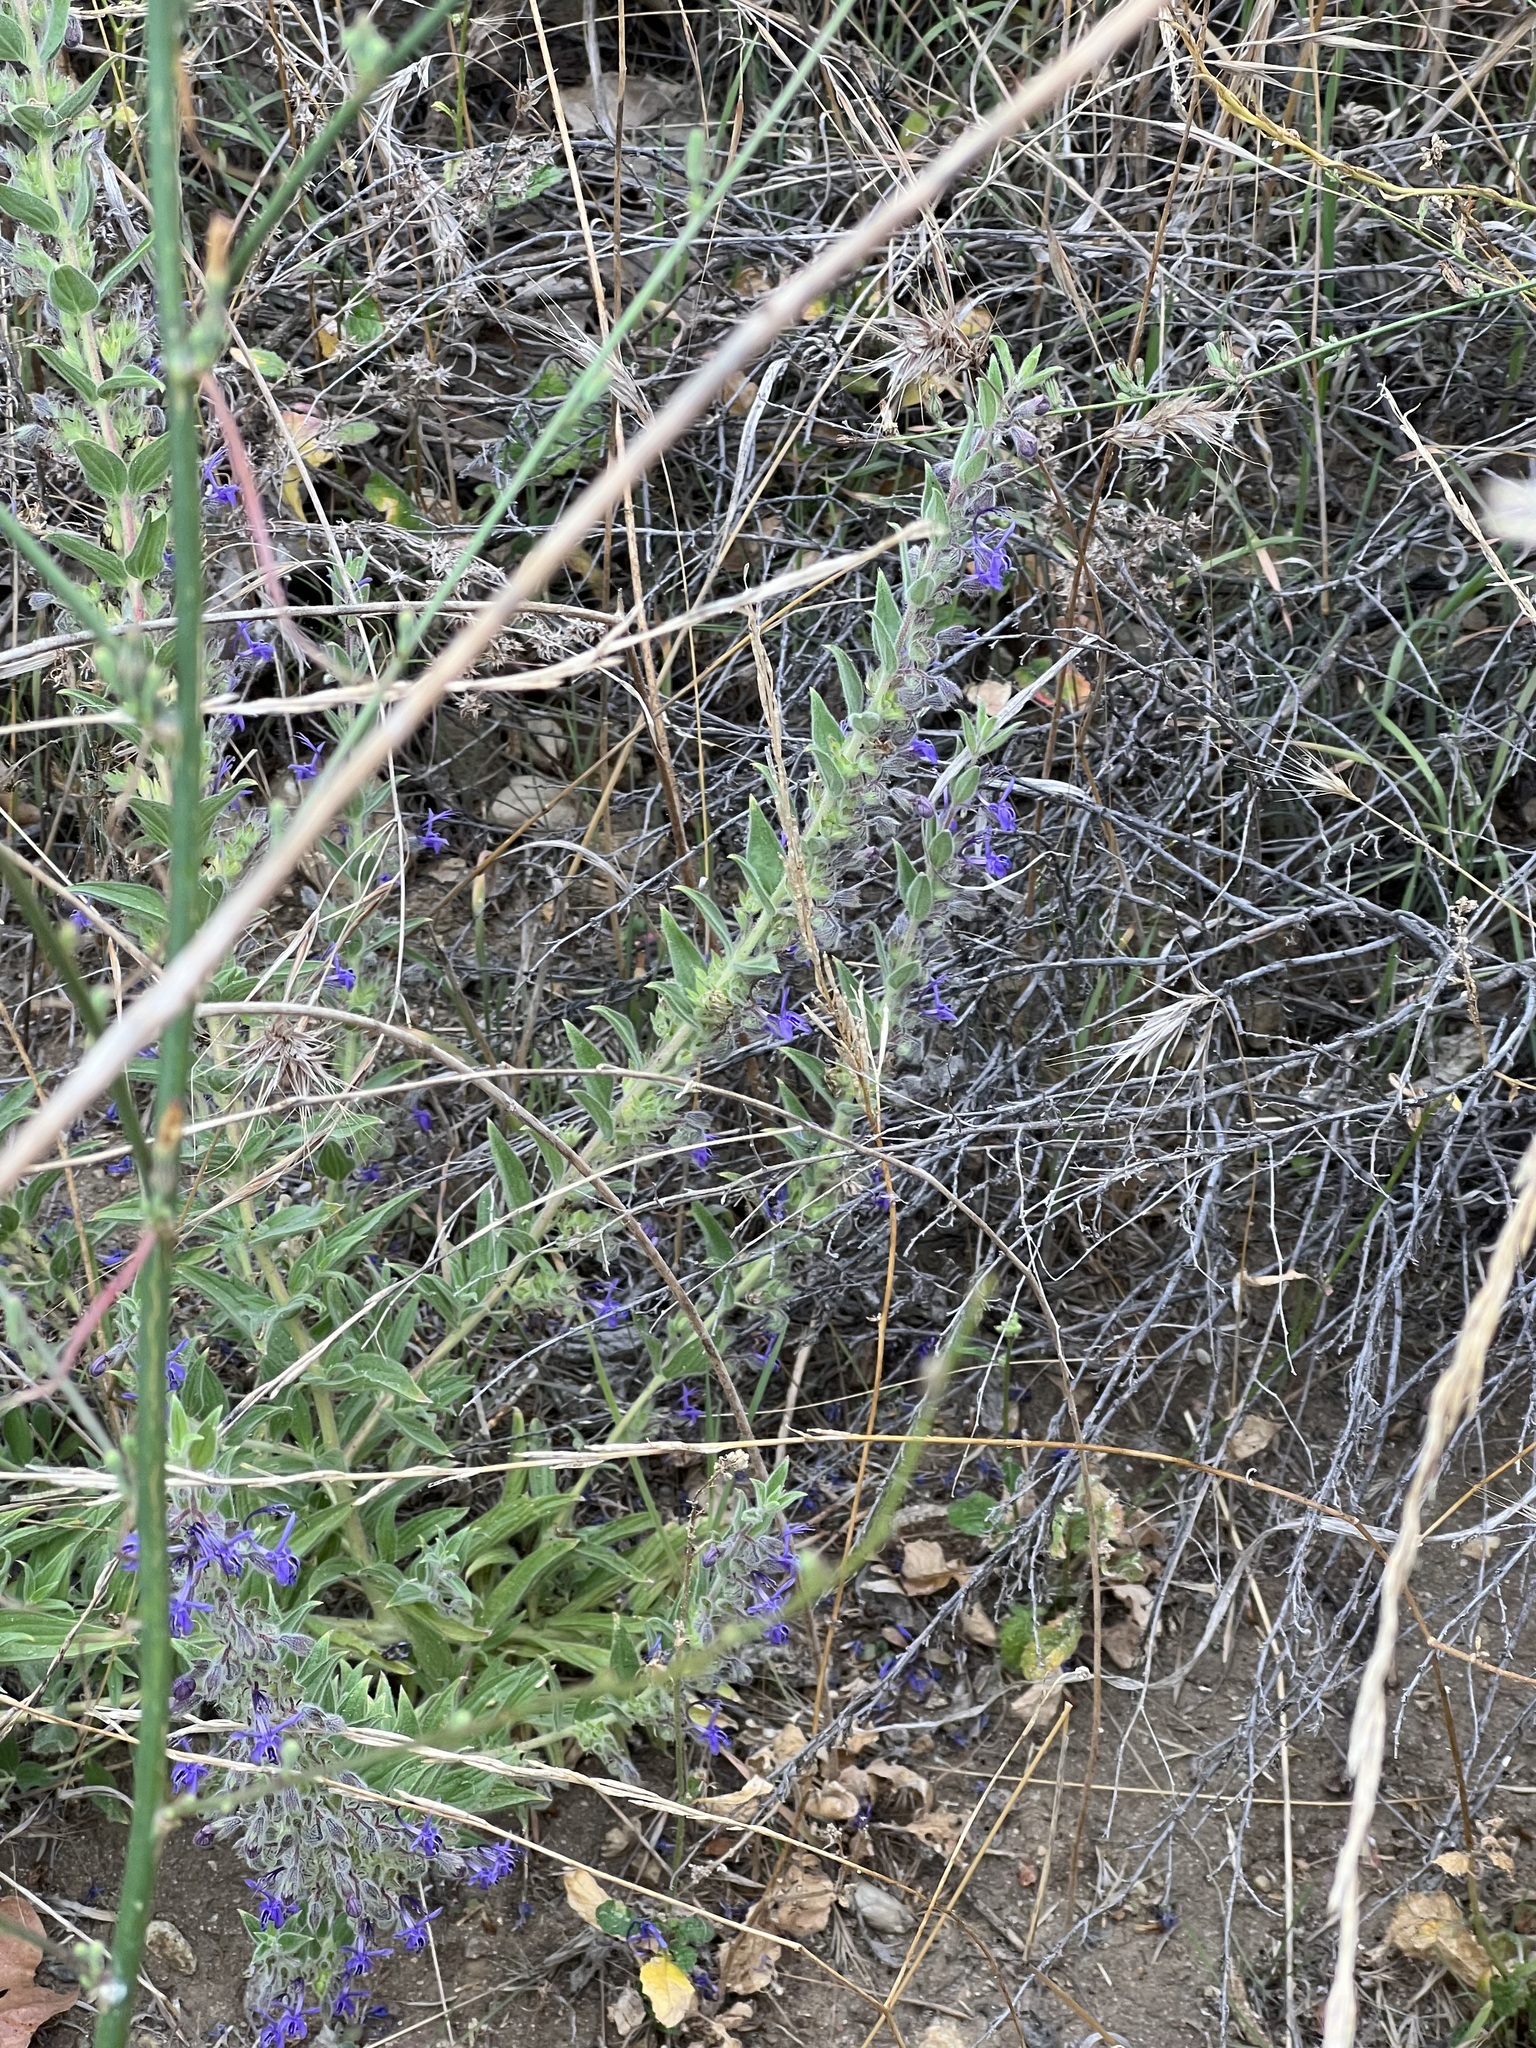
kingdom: Plantae
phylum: Tracheophyta
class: Magnoliopsida
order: Lamiales
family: Lamiaceae
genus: Trichostema
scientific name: Trichostema lanceolatum
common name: Vinegar-weed
